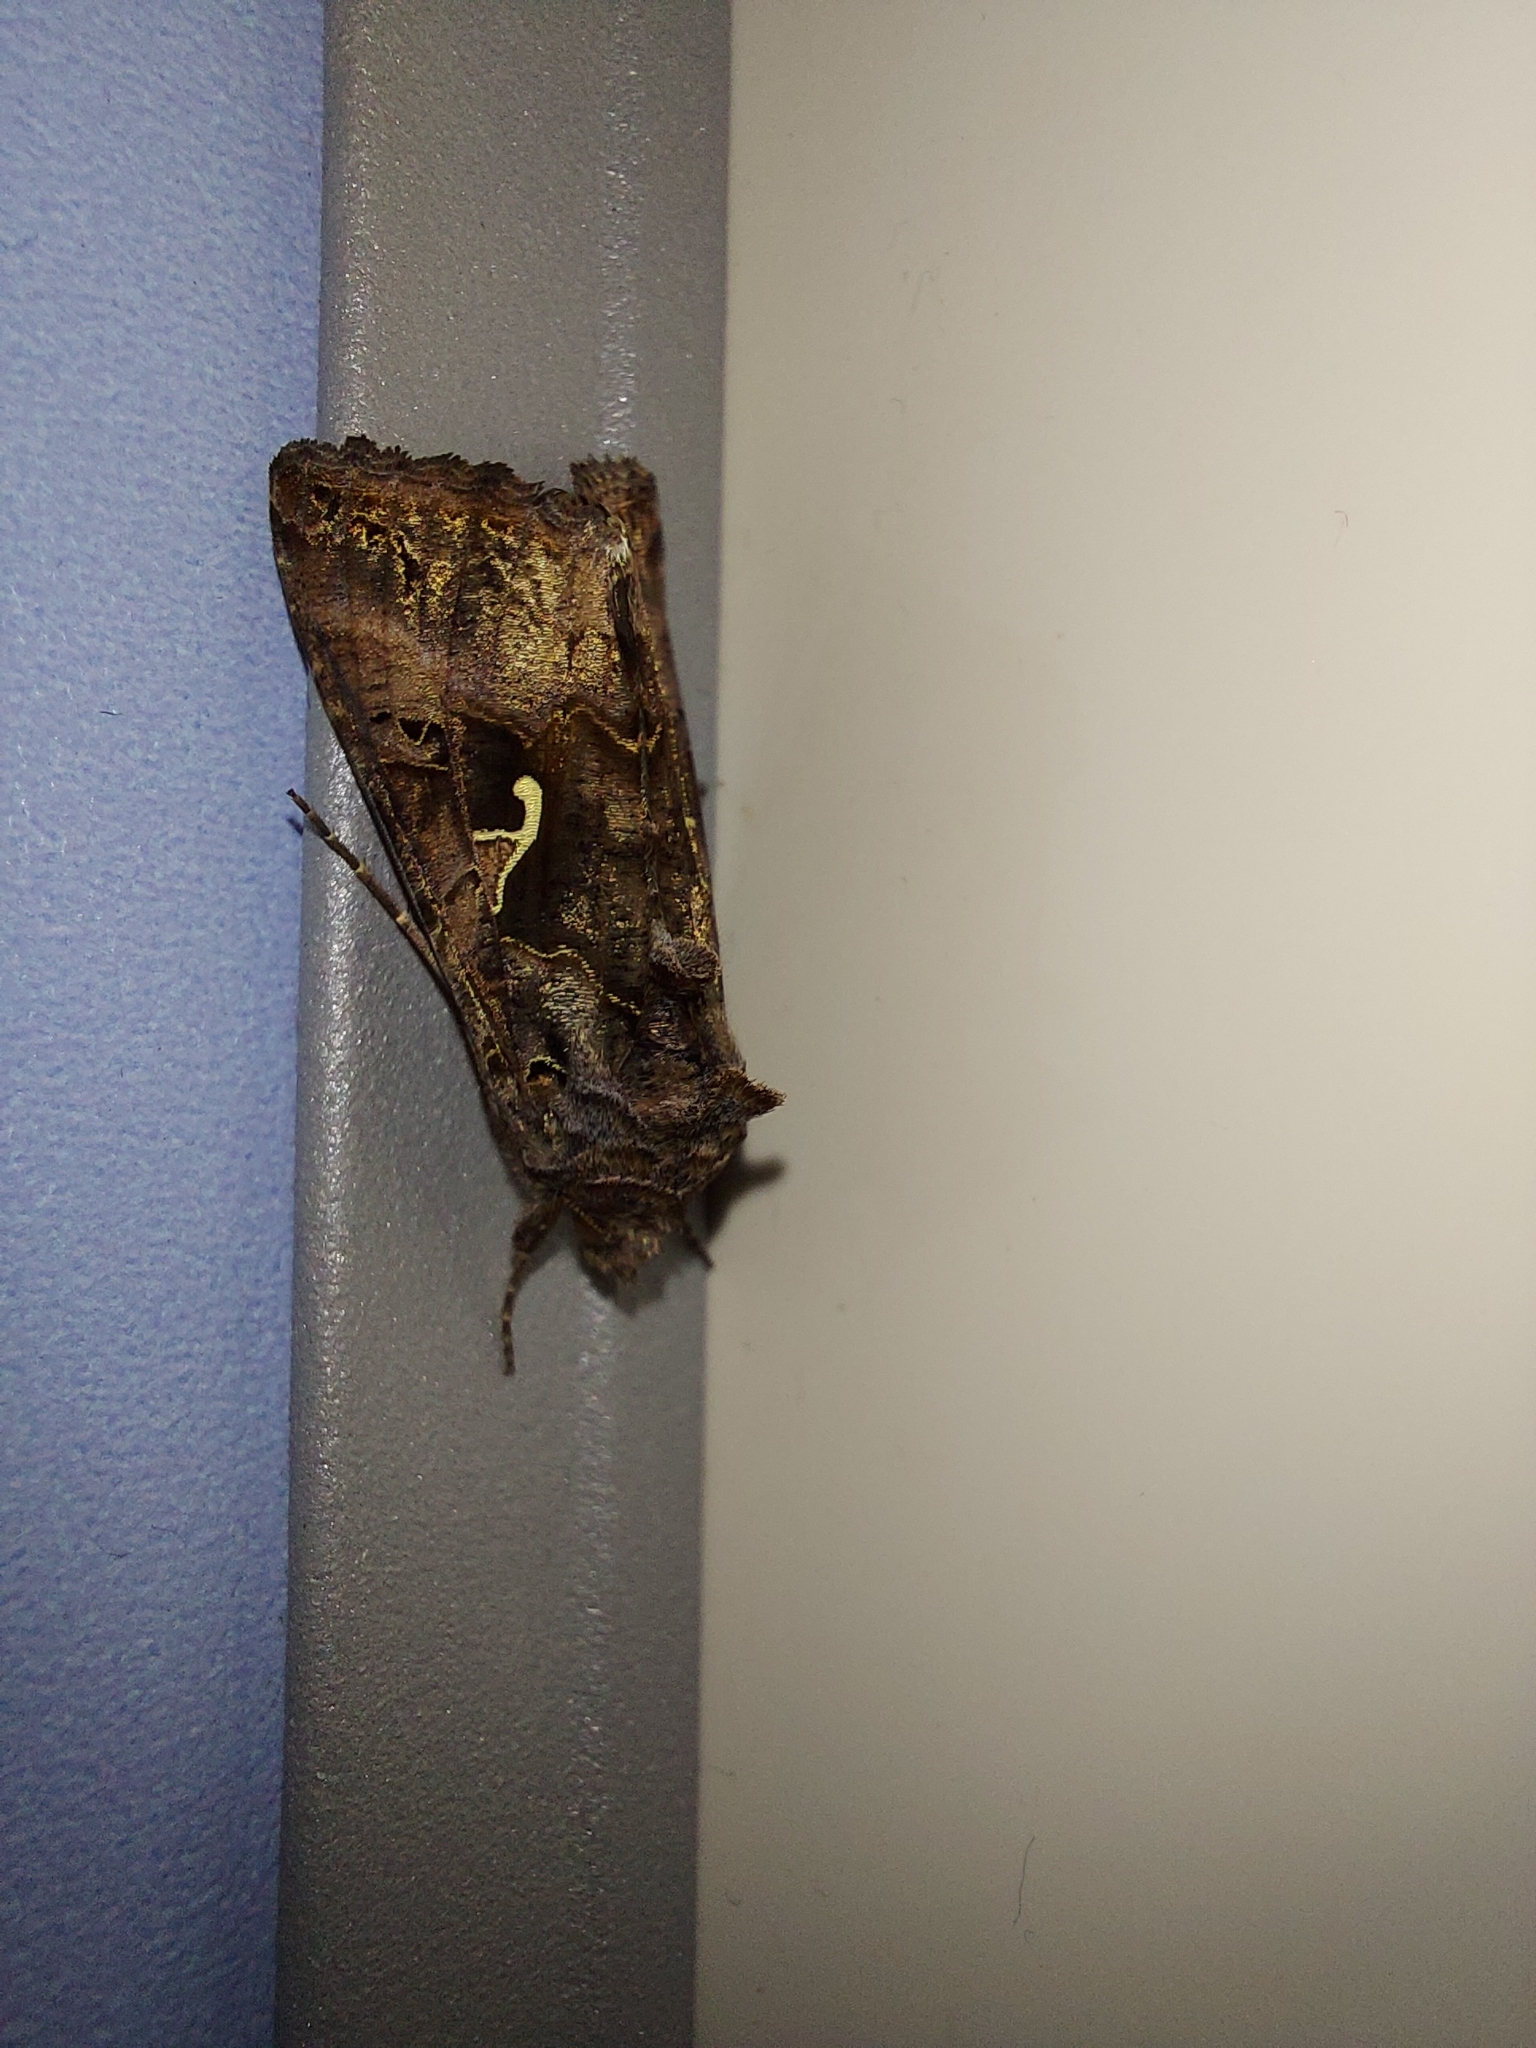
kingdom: Animalia
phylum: Arthropoda
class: Insecta
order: Lepidoptera
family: Noctuidae
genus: Autographa
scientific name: Autographa gamma
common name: Silver y
